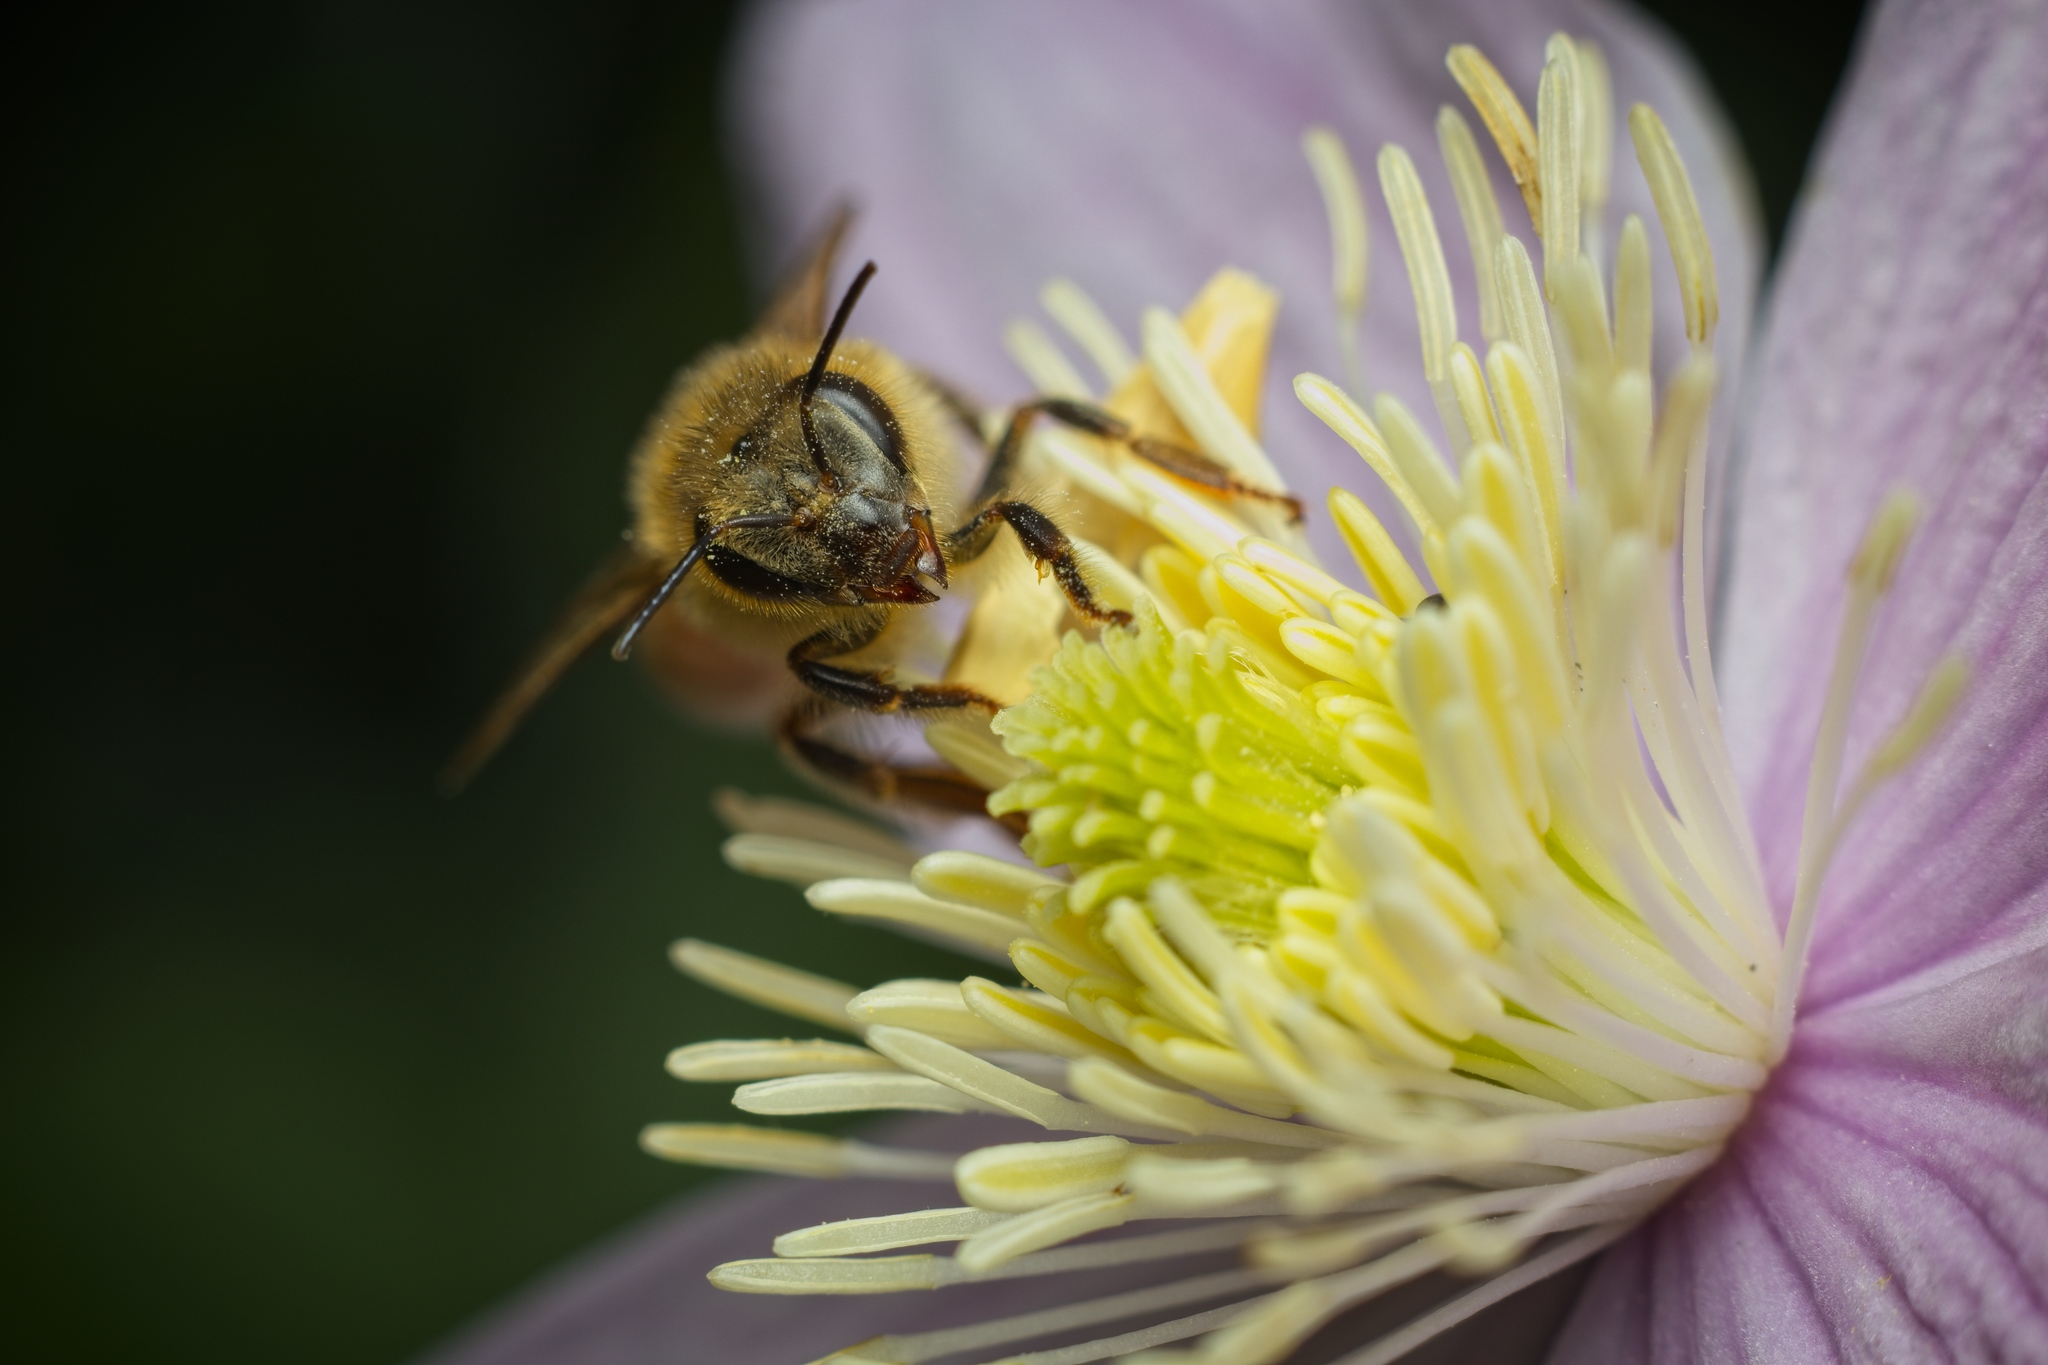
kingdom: Animalia
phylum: Arthropoda
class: Insecta
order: Hymenoptera
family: Apidae
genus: Apis
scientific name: Apis mellifera
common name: Honey bee
